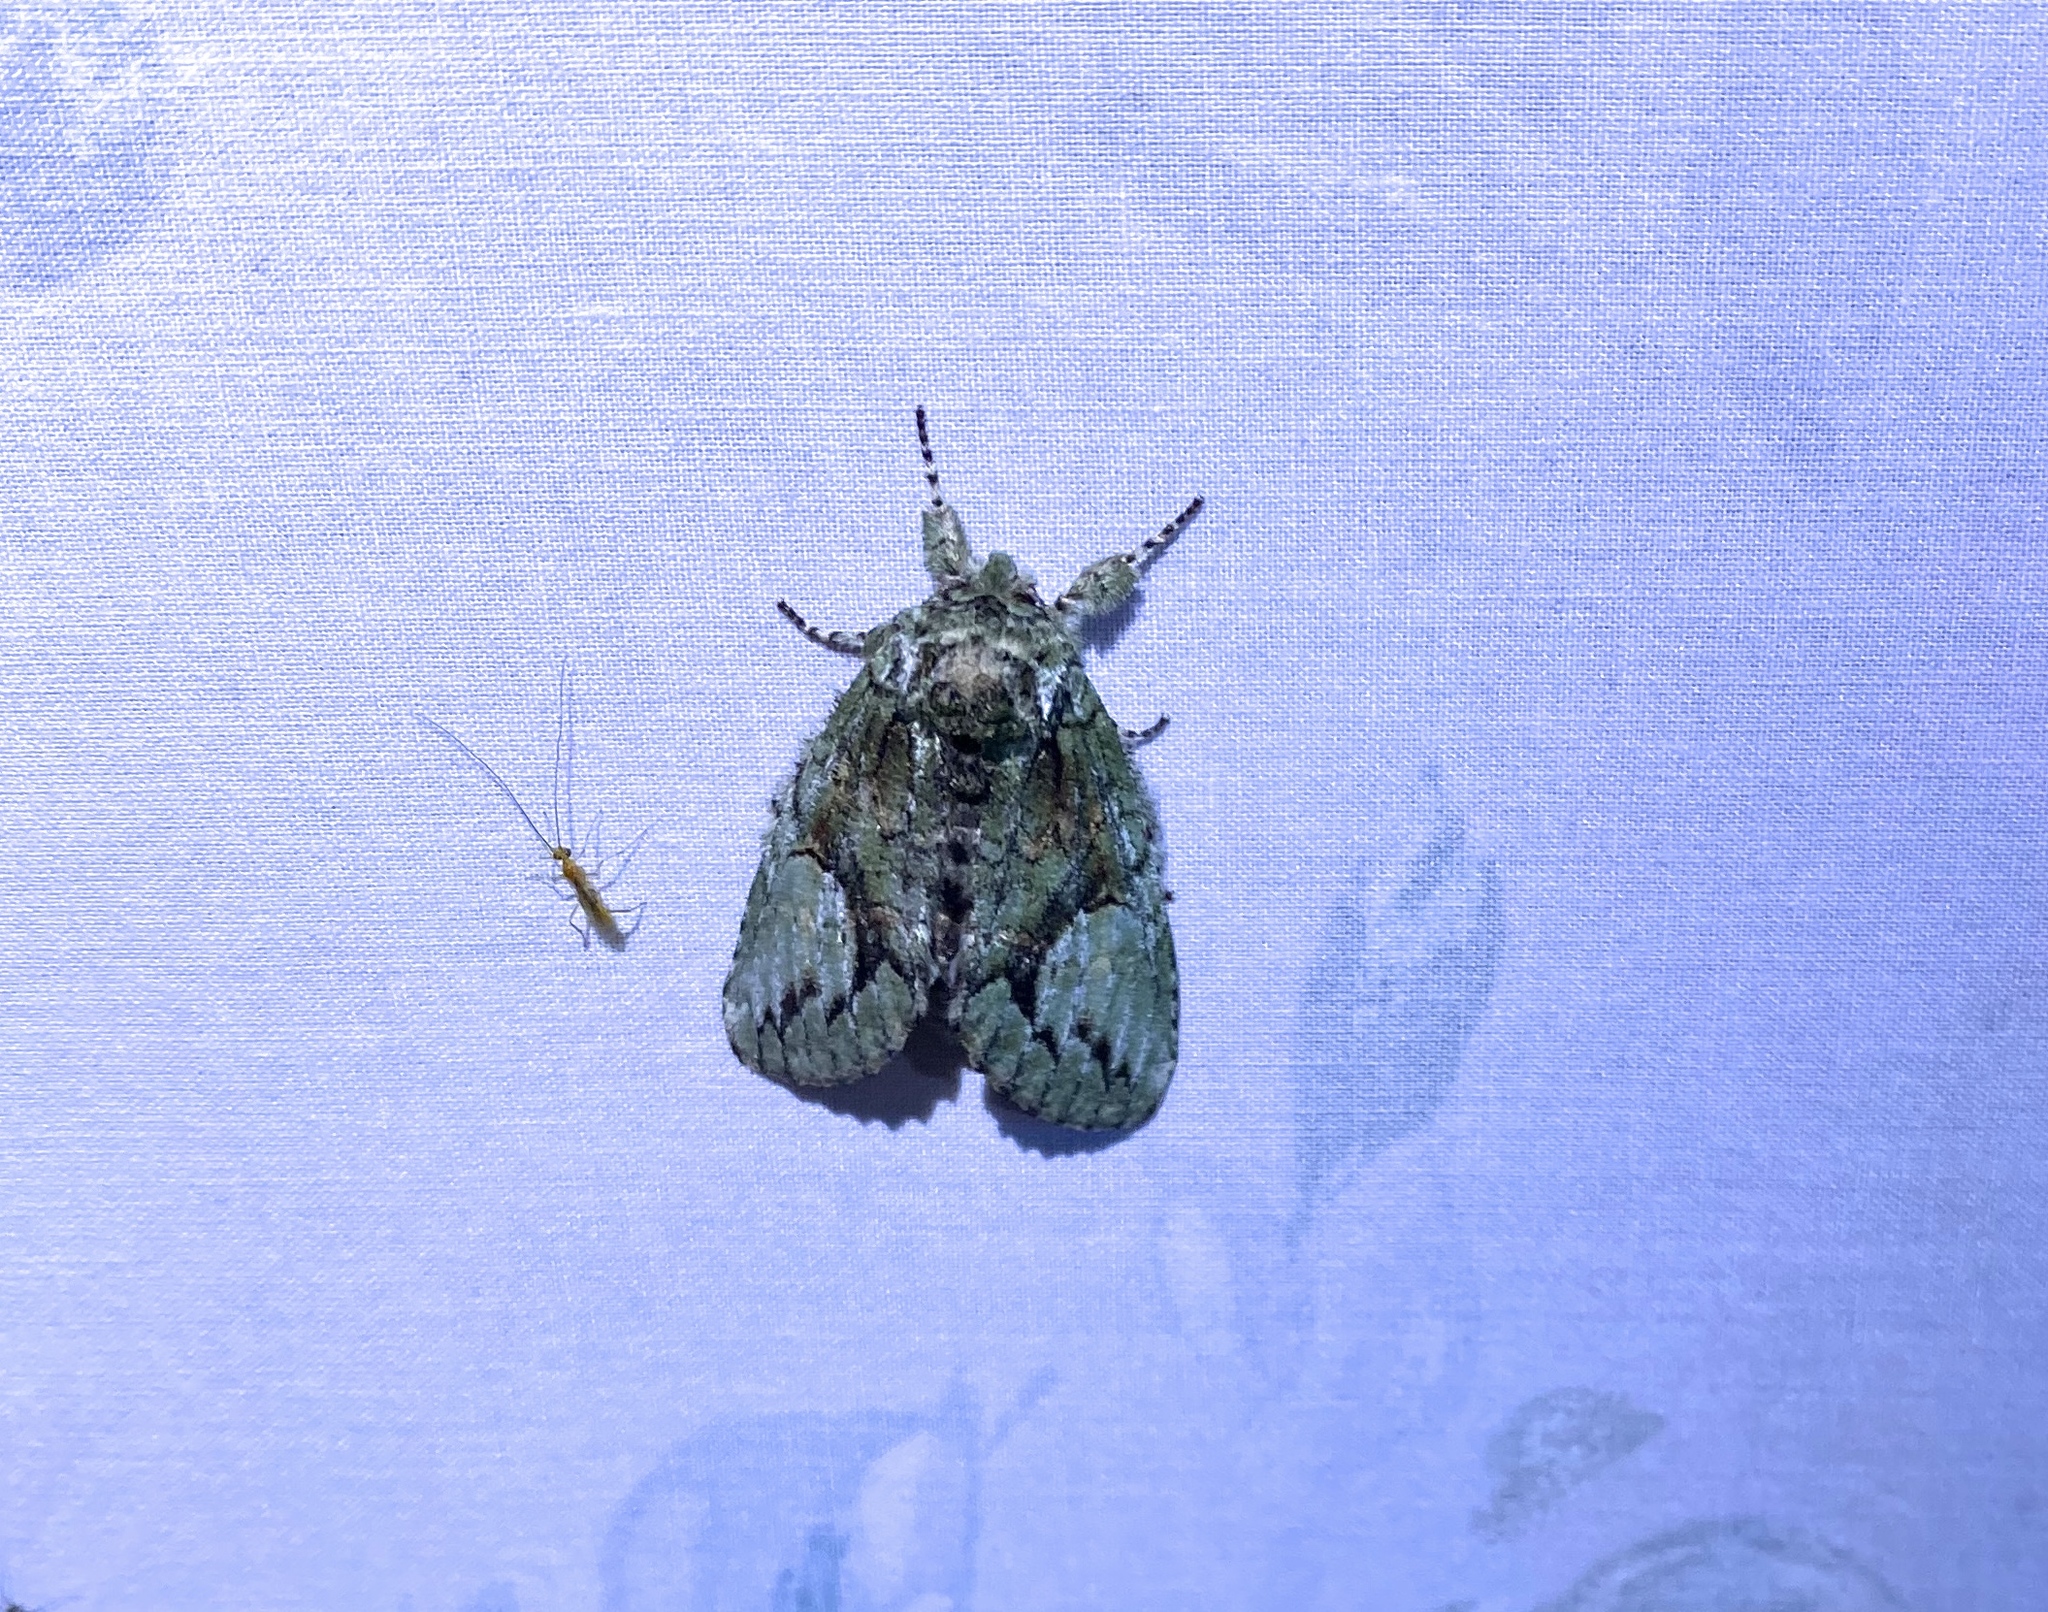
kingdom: Animalia
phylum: Arthropoda
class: Insecta
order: Lepidoptera
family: Notodontidae
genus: Heterocampa
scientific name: Heterocampa
